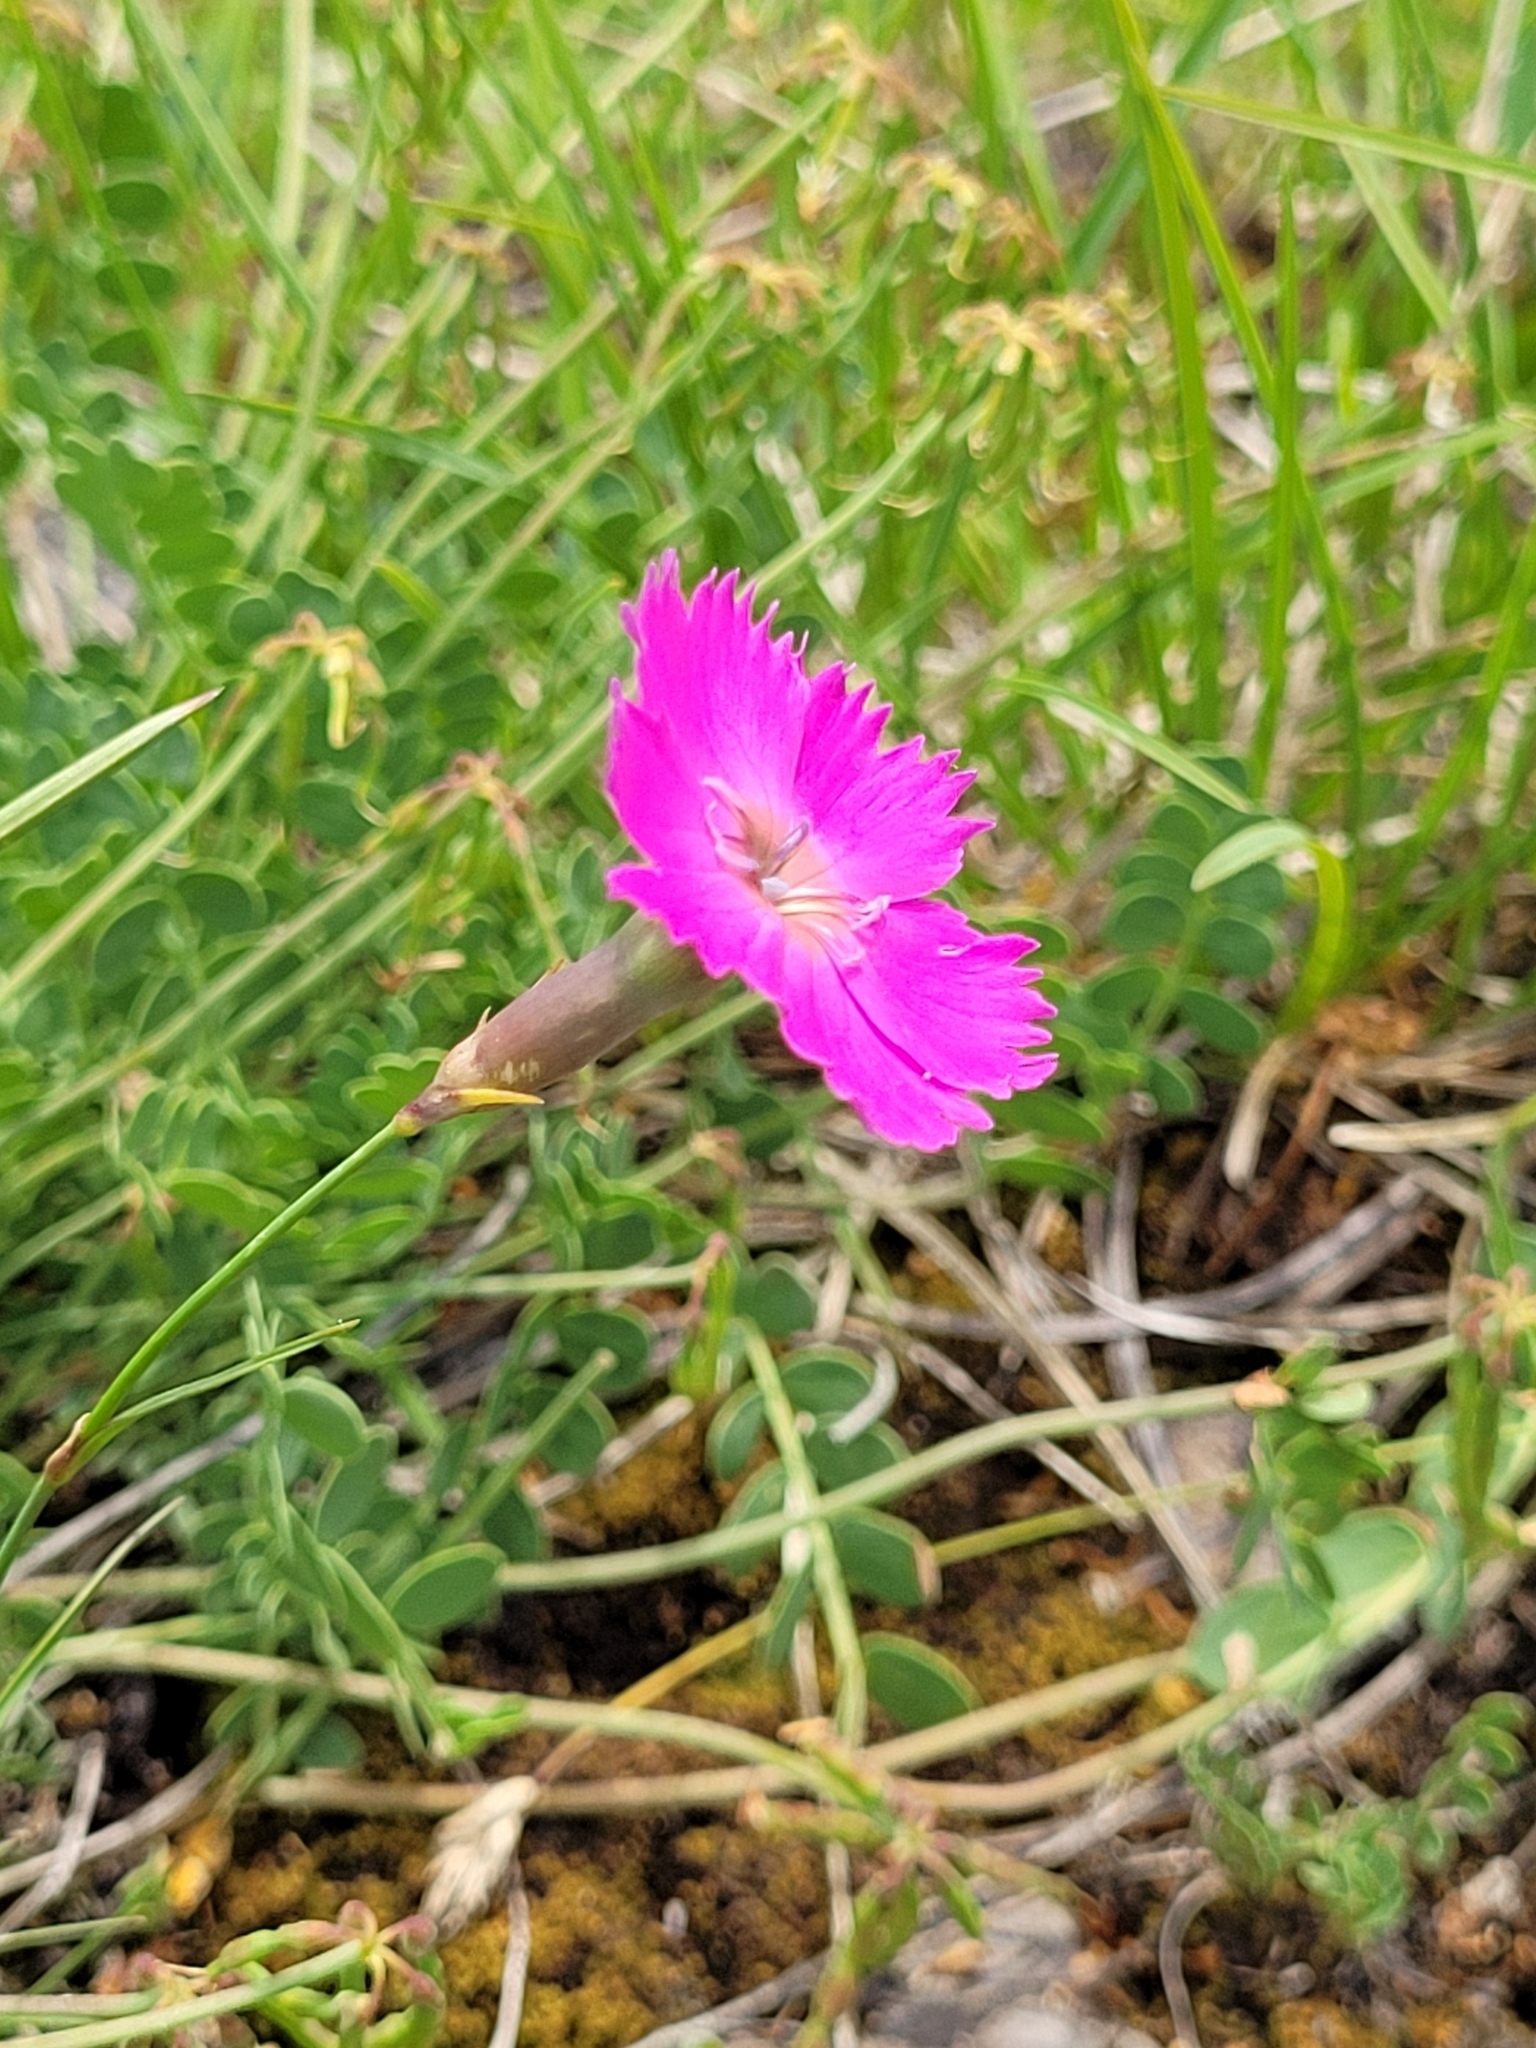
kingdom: Plantae
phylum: Tracheophyta
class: Magnoliopsida
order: Caryophyllales
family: Caryophyllaceae
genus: Dianthus
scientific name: Dianthus sylvestris
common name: Wood pink
